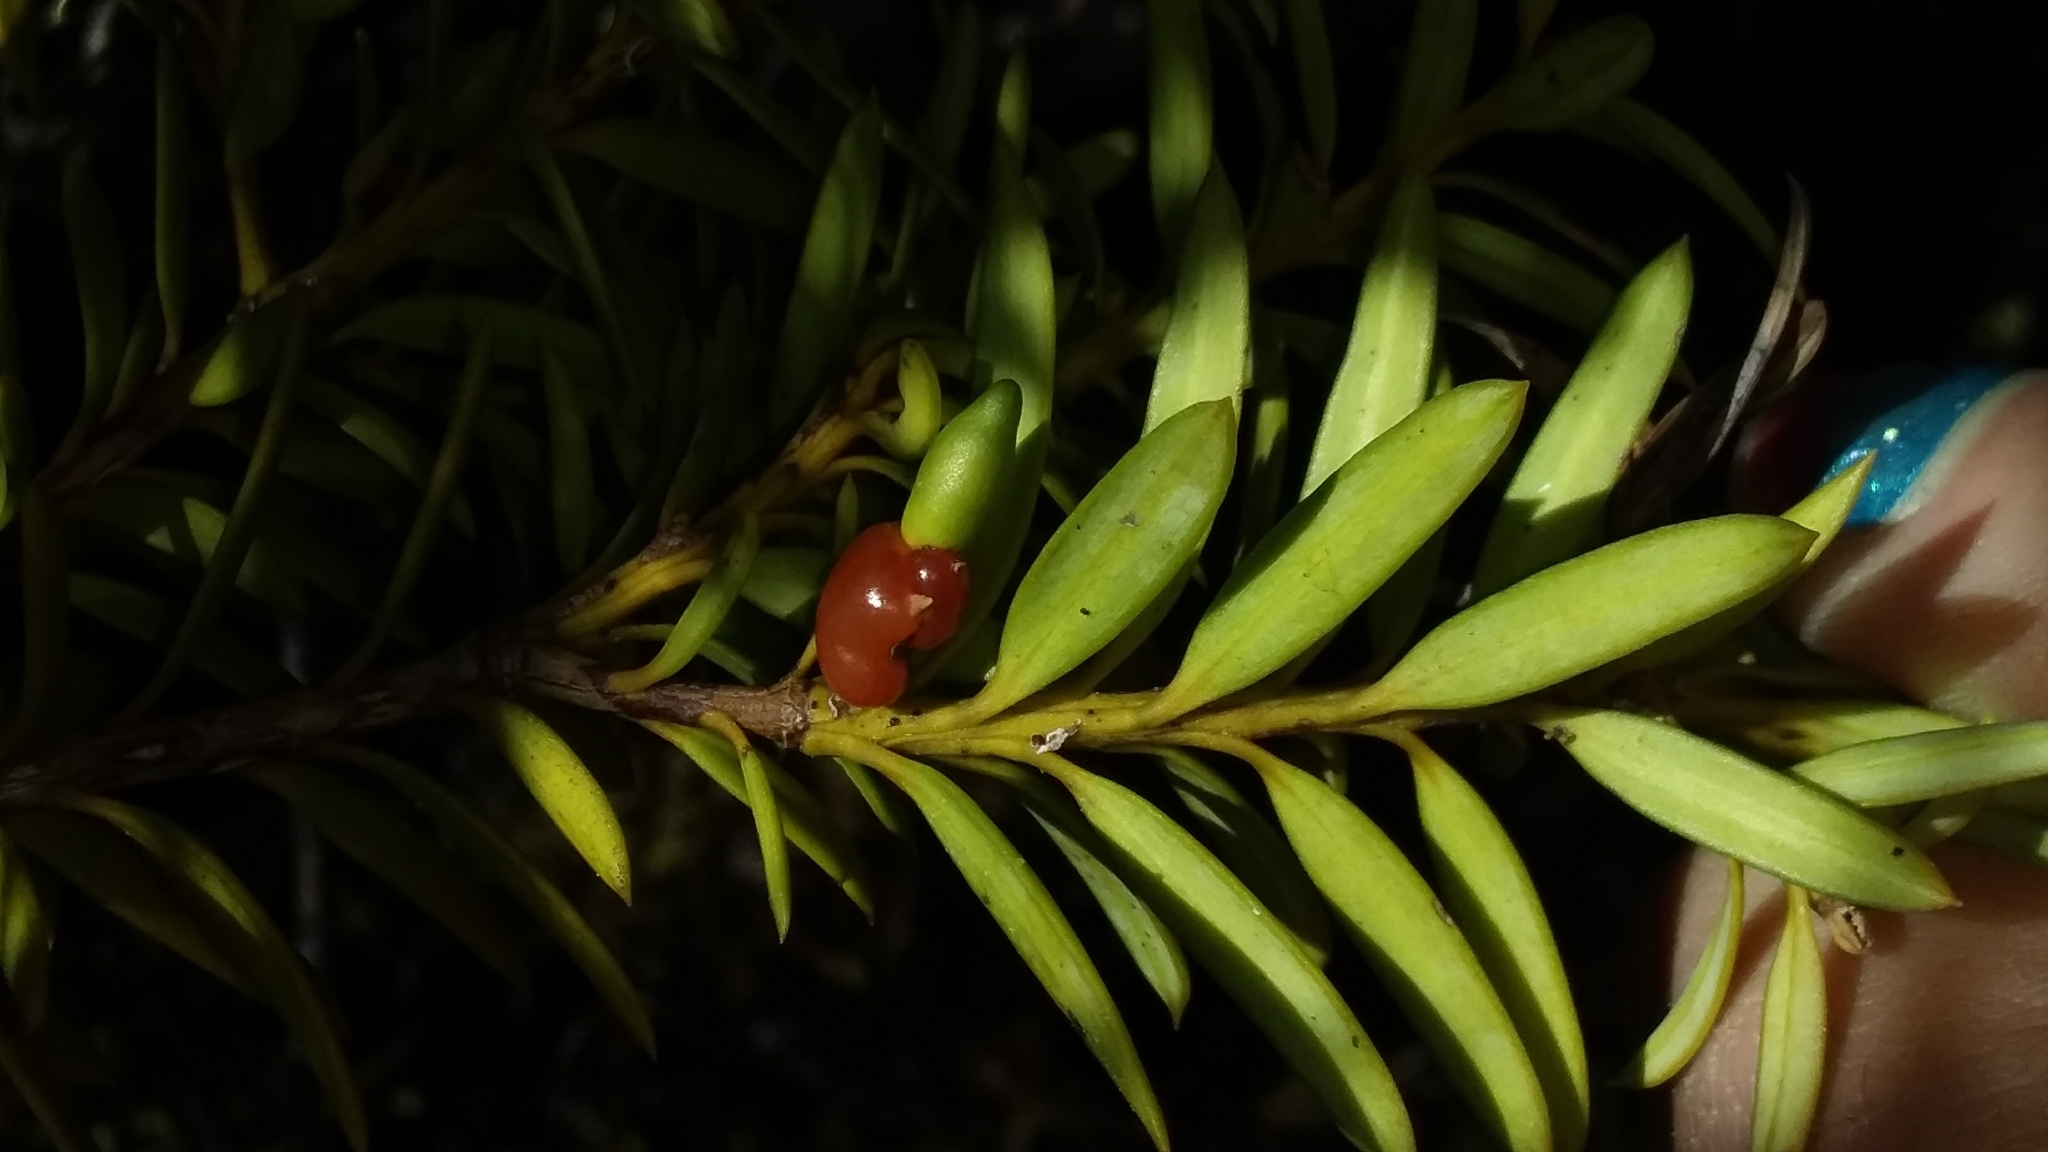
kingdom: Plantae
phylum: Tracheophyta
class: Pinopsida
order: Pinales
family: Podocarpaceae
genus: Podocarpus
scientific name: Podocarpus laetus
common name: Hall's totara
